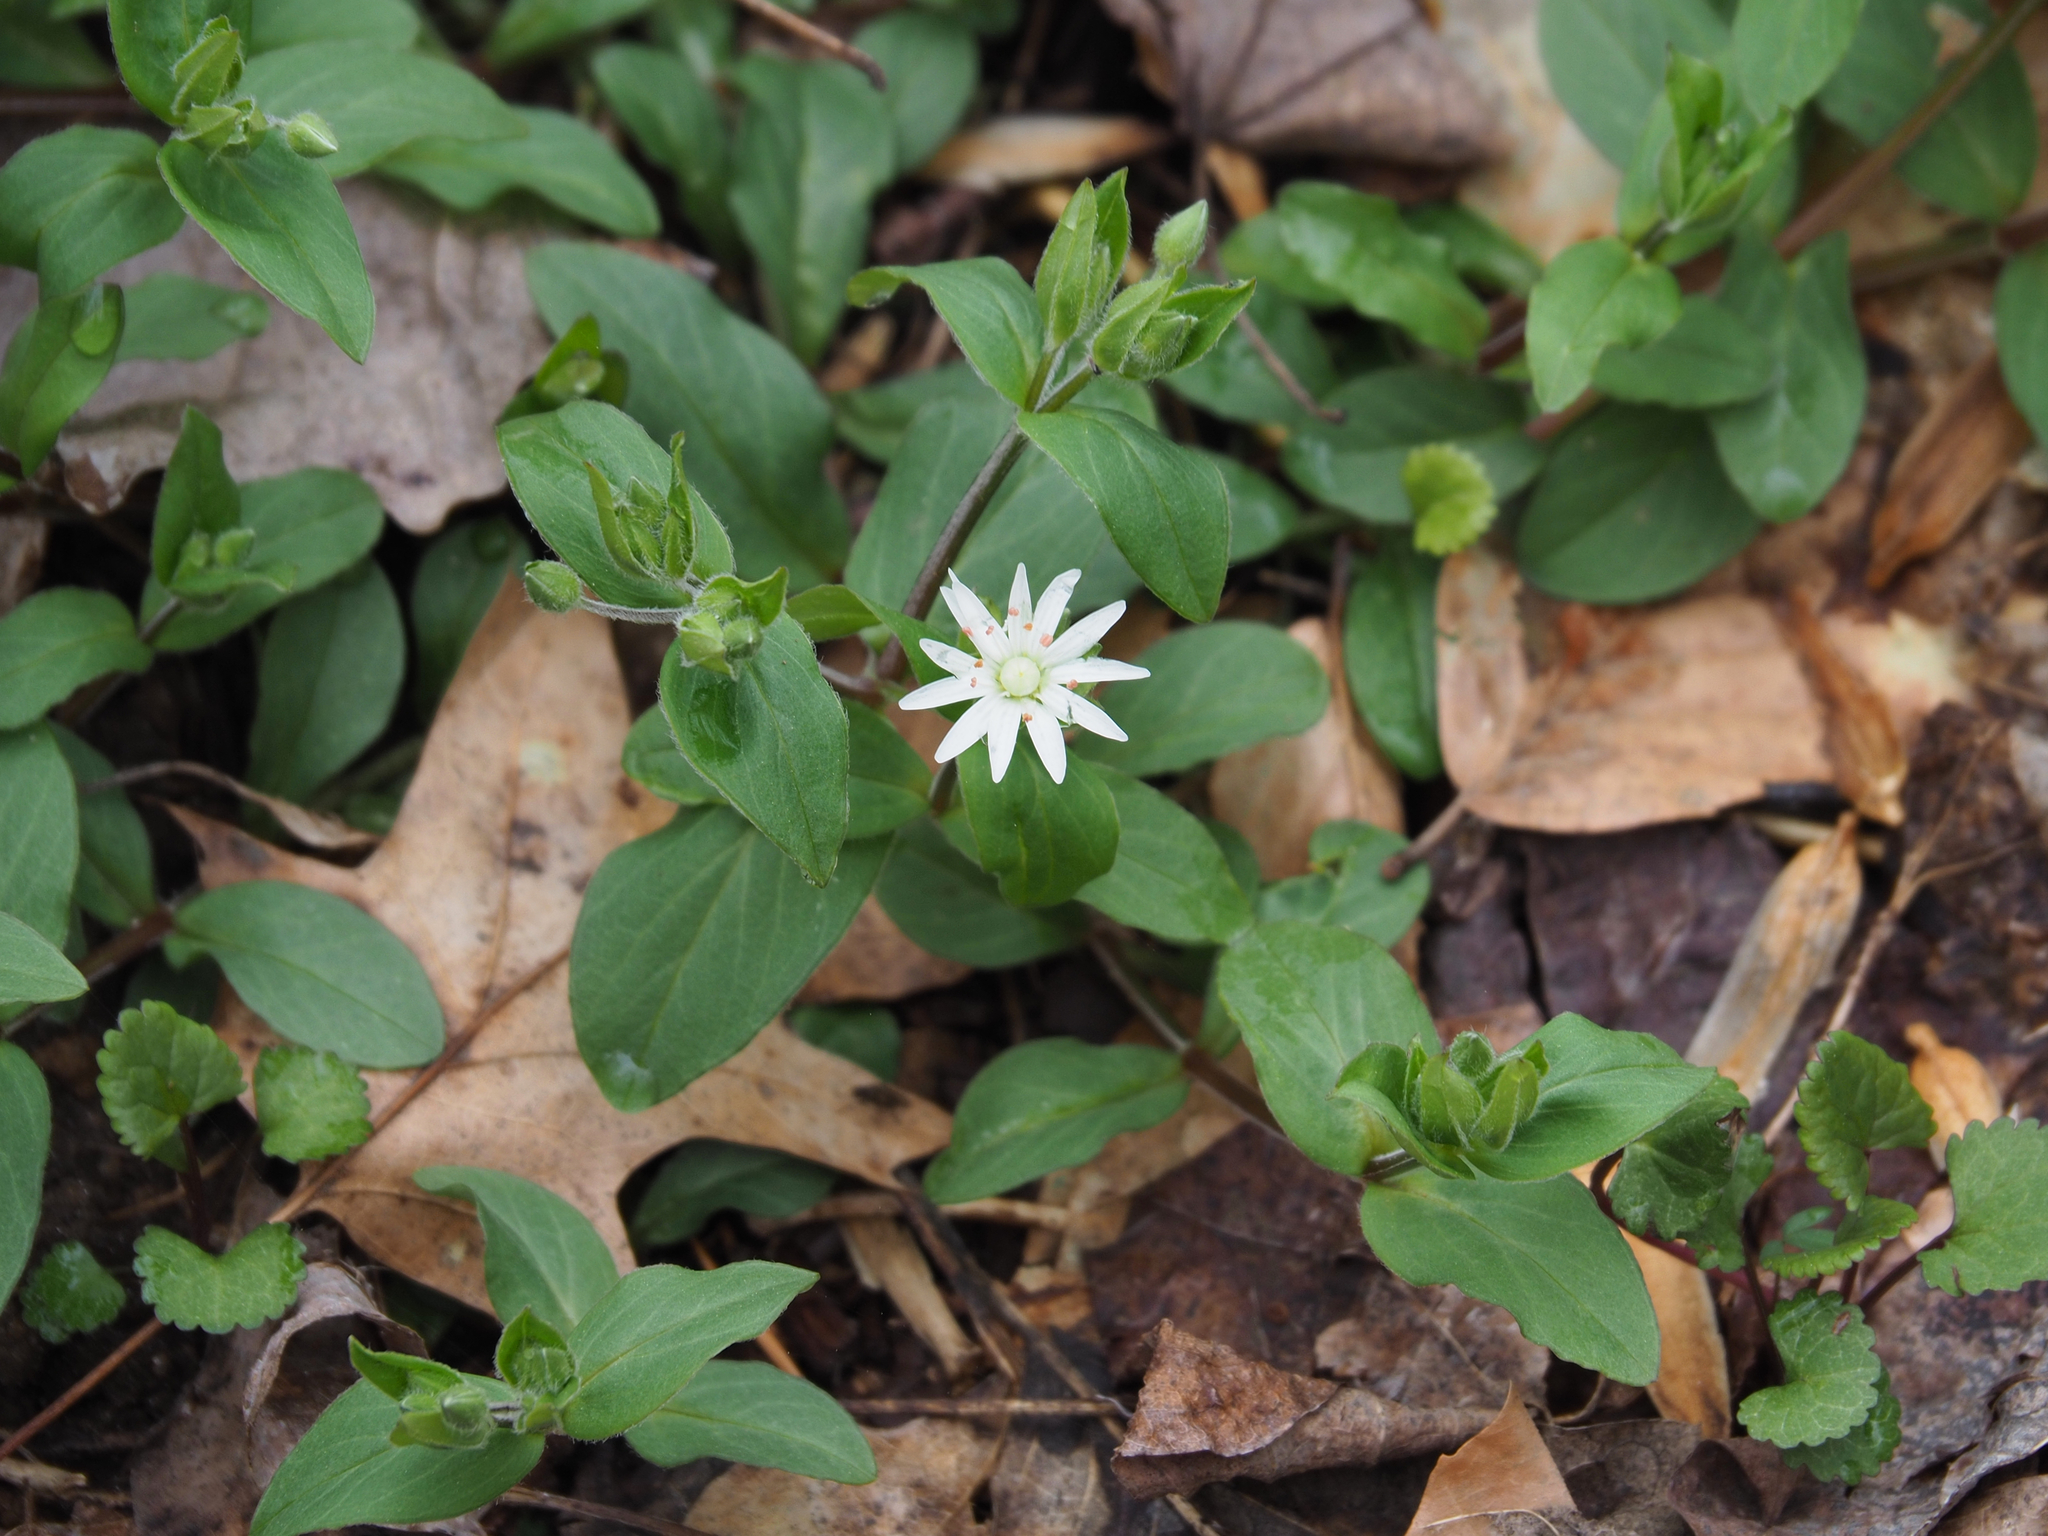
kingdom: Plantae
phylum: Tracheophyta
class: Magnoliopsida
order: Caryophyllales
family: Caryophyllaceae
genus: Stellaria
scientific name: Stellaria pubera
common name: Star chickweed
